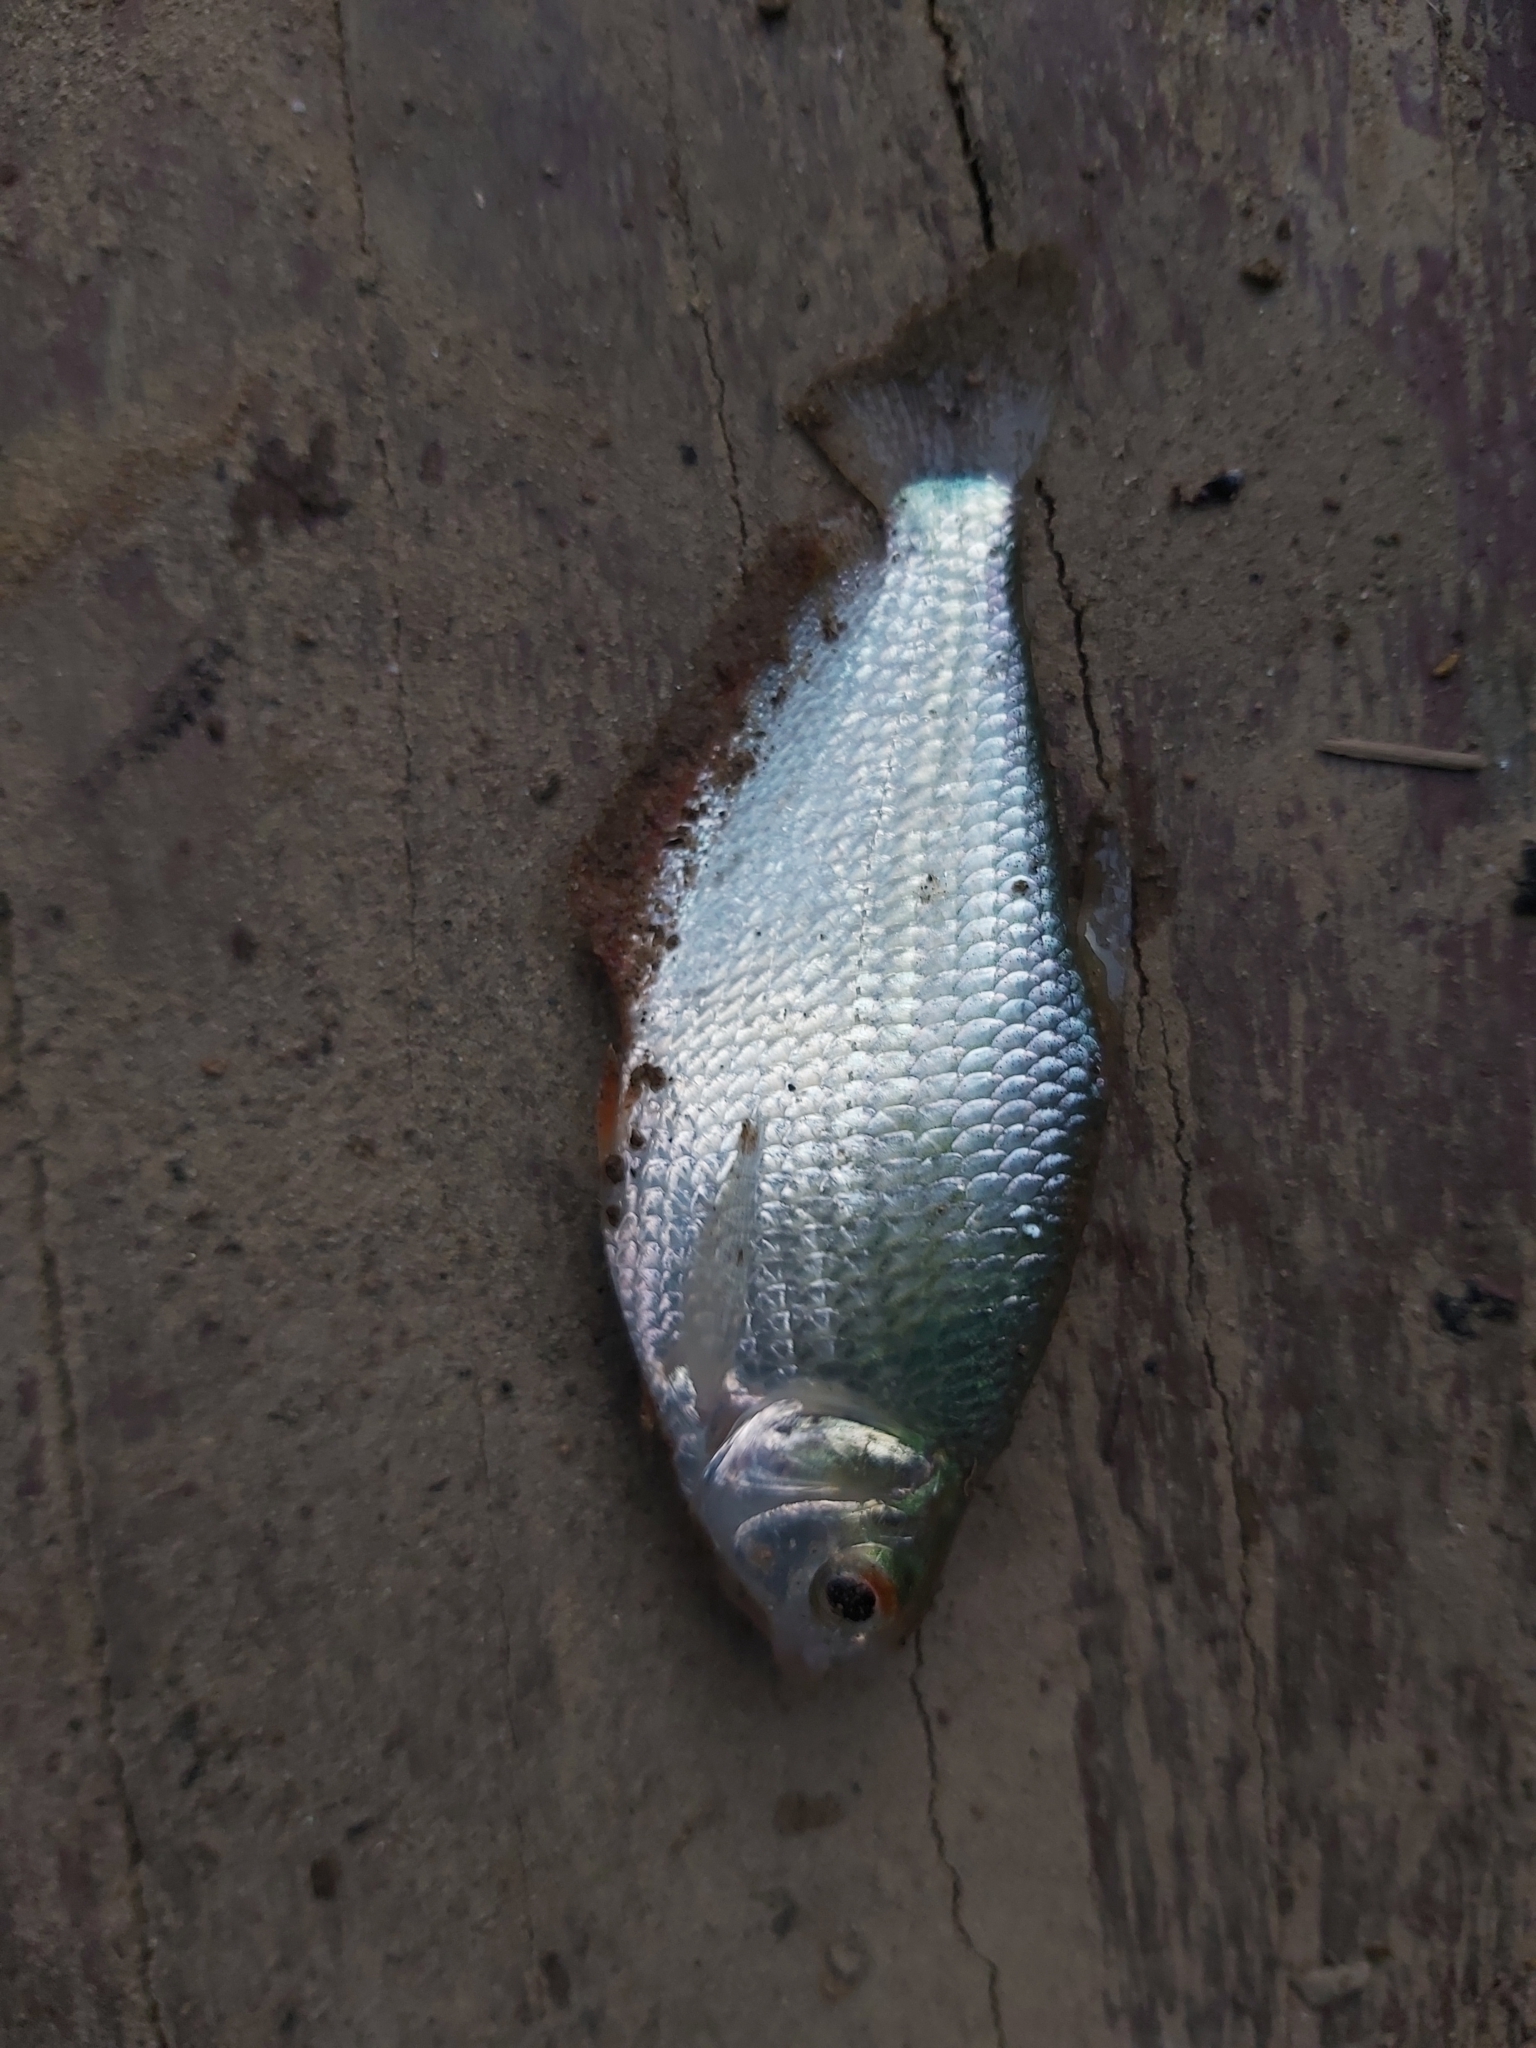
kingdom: Animalia
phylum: Chordata
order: Characiformes
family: Characidae
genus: Markiana
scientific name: Markiana nigripinnis
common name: Tetra
